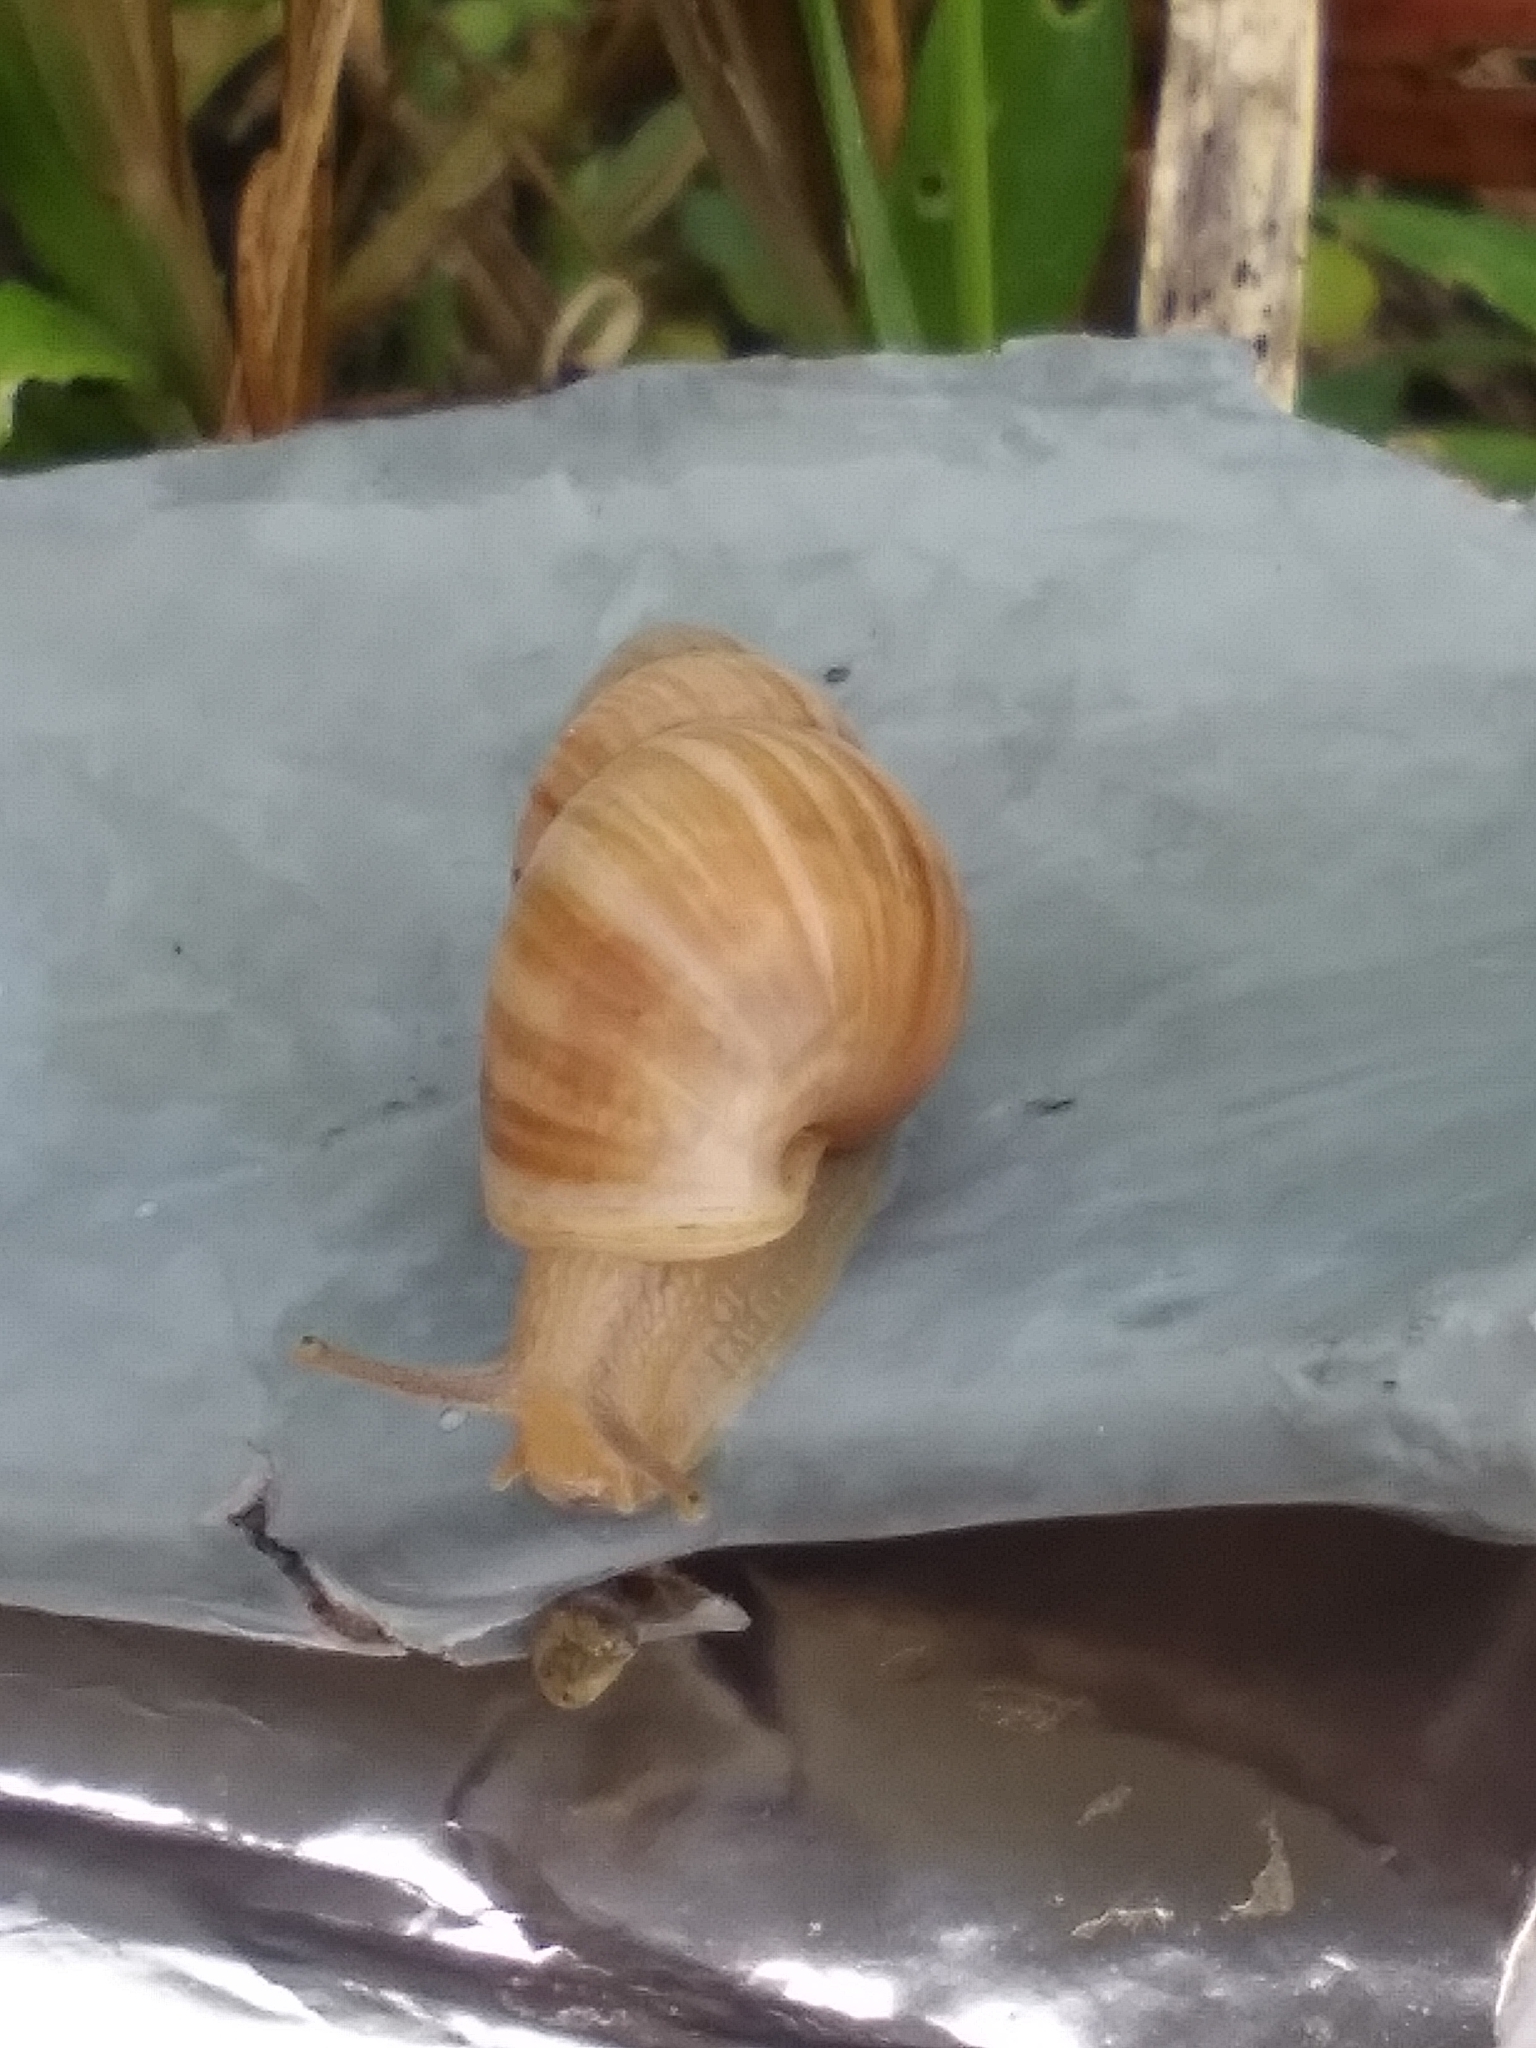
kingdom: Animalia
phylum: Mollusca
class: Gastropoda
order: Stylommatophora
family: Bulimulidae
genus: Bulimulus
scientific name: Bulimulus bonariensis
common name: Snail
